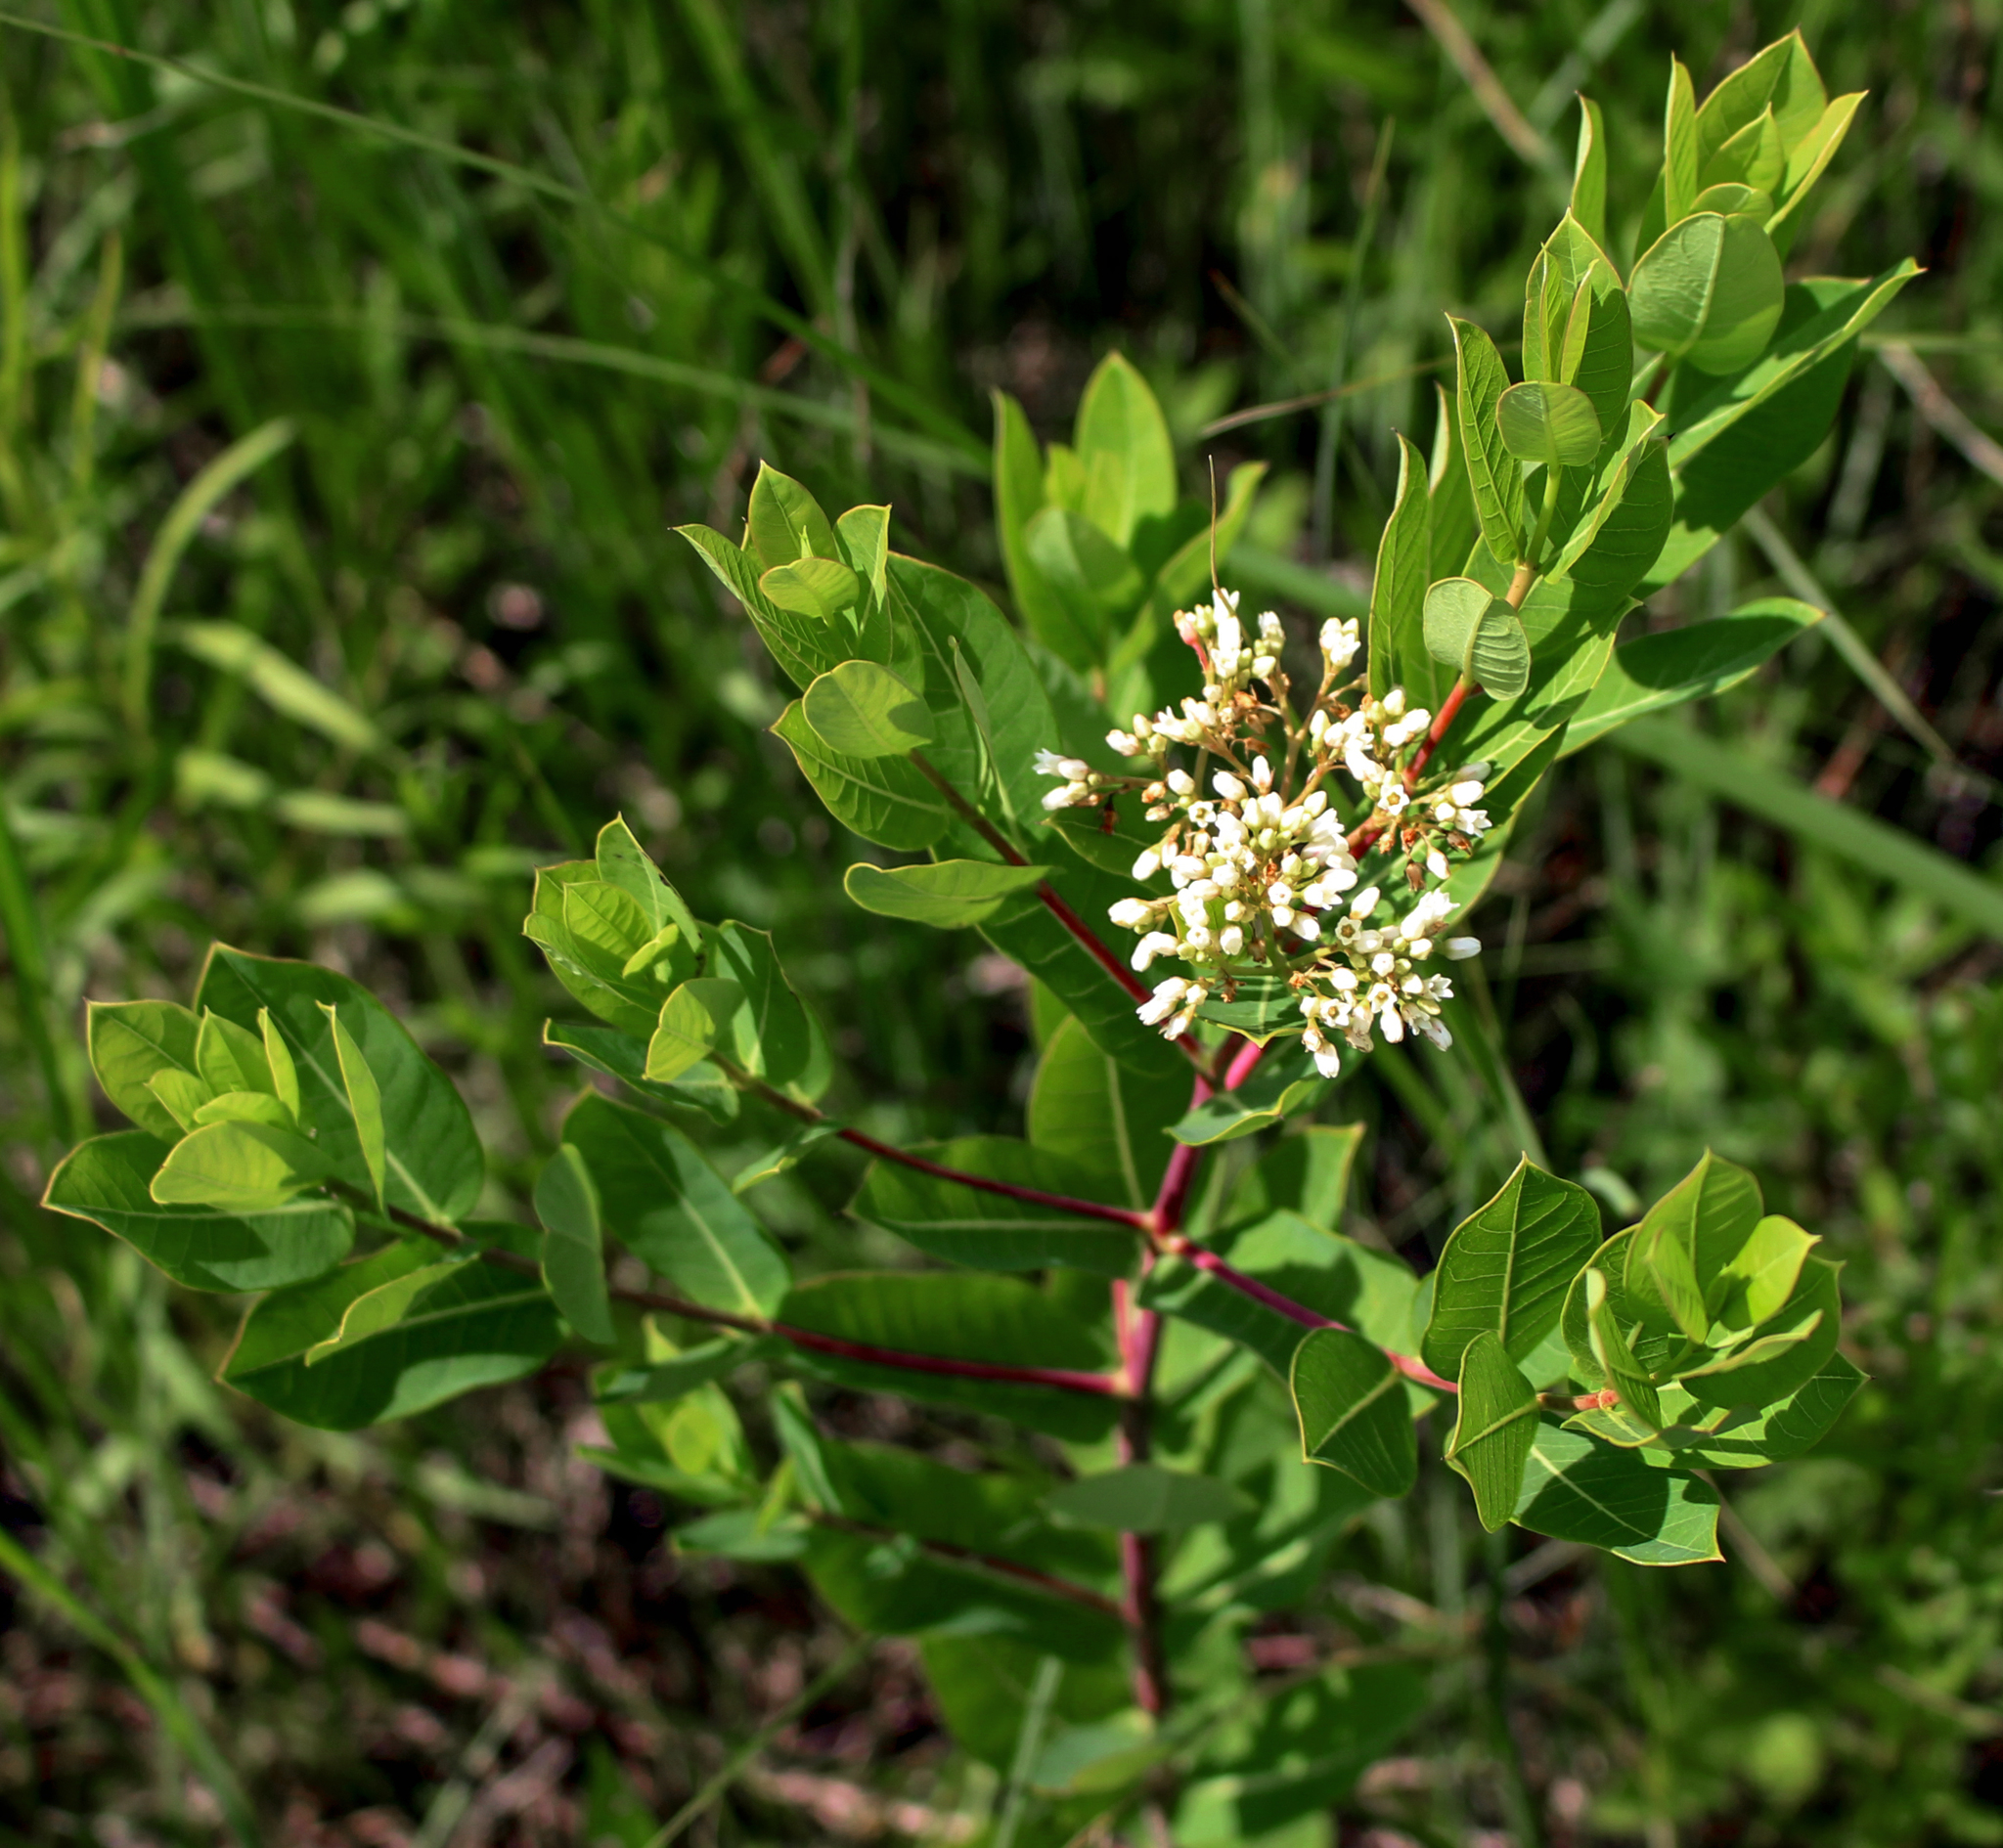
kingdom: Plantae
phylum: Tracheophyta
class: Magnoliopsida
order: Gentianales
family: Apocynaceae
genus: Apocynum
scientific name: Apocynum cannabinum
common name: Hemp dogbane
